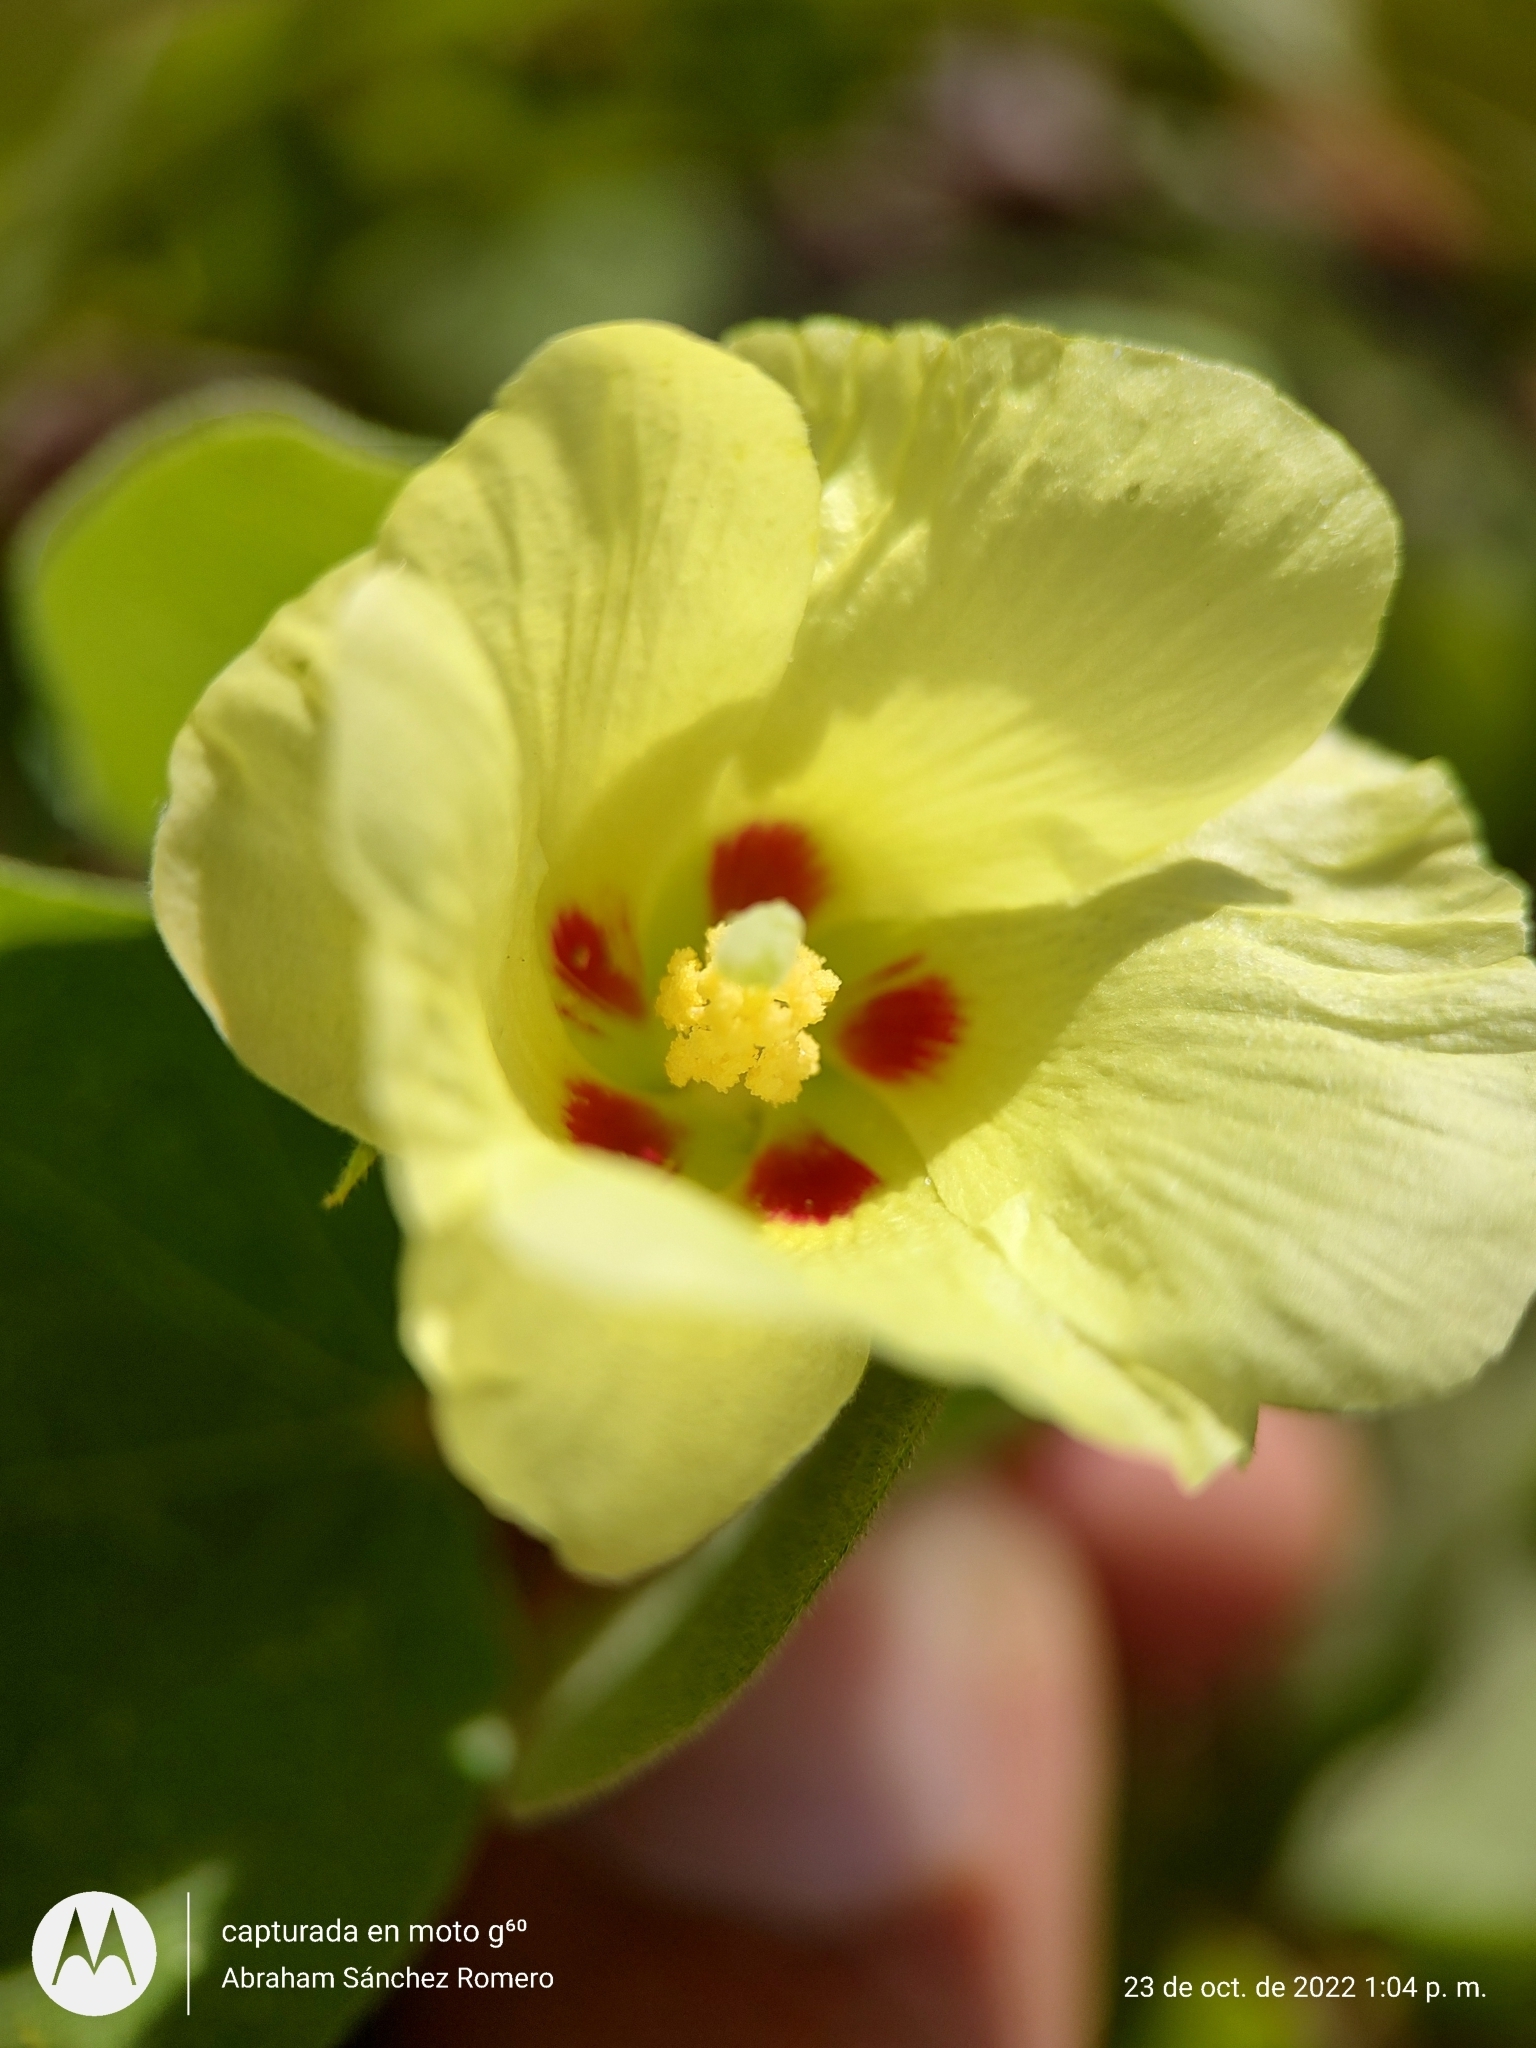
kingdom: Plantae
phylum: Tracheophyta
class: Magnoliopsida
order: Malvales
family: Malvaceae
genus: Gossypium
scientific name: Gossypium klotzschianum
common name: Galapagos cotton
